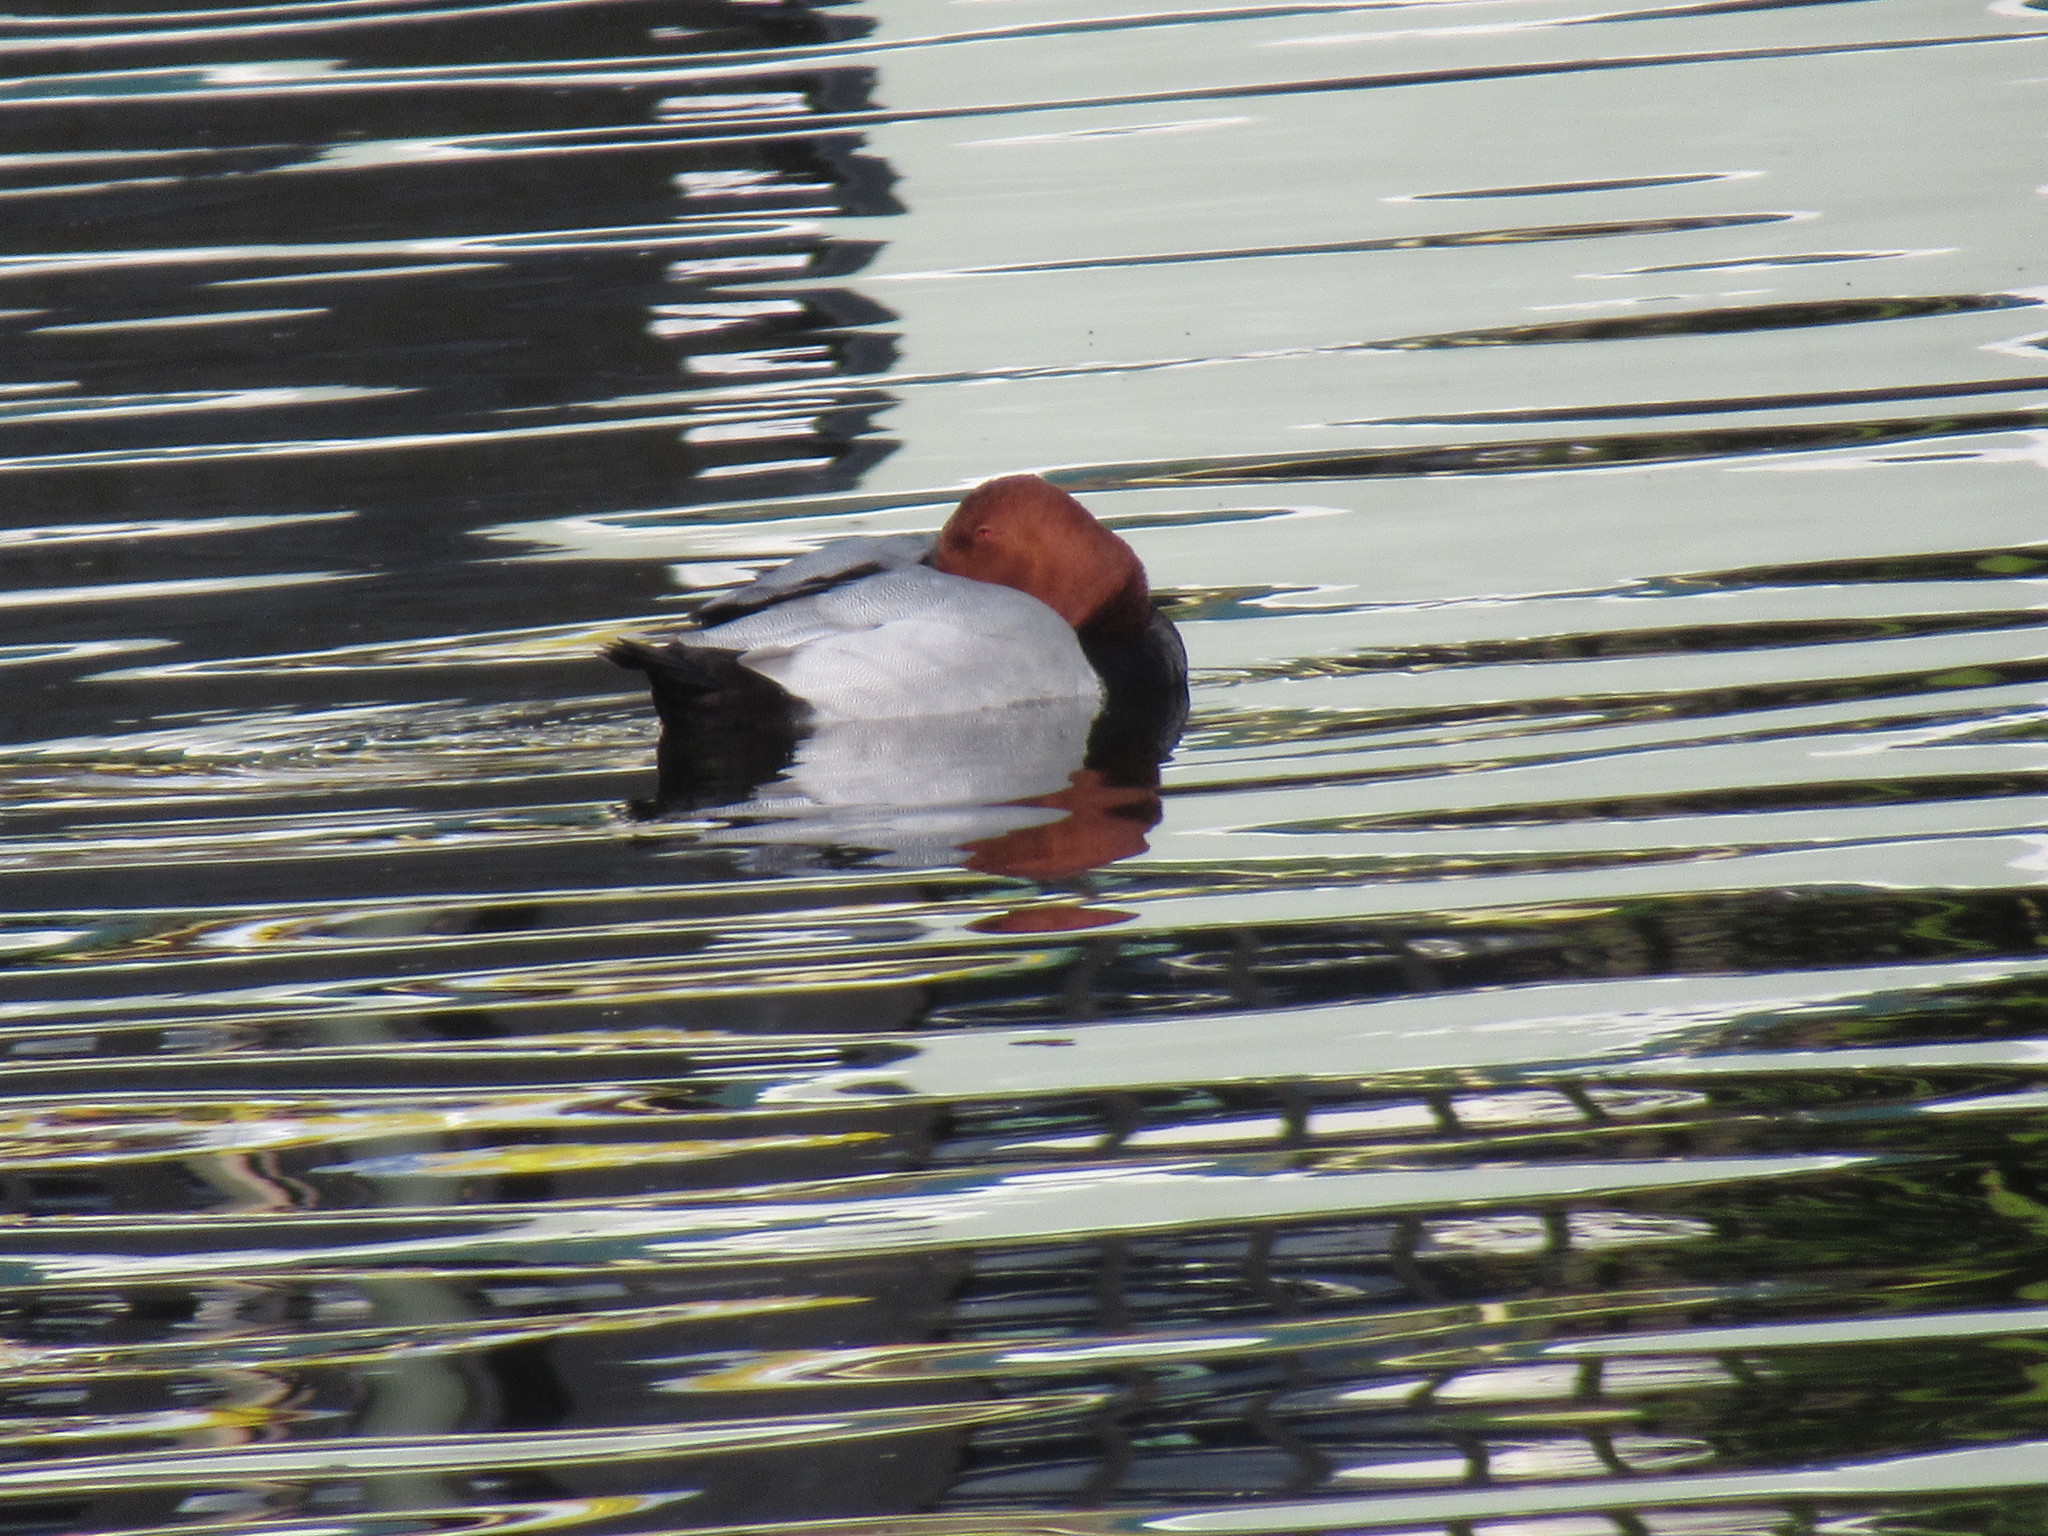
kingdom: Animalia
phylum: Chordata
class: Aves
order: Anseriformes
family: Anatidae
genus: Aythya
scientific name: Aythya ferina
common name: Common pochard
